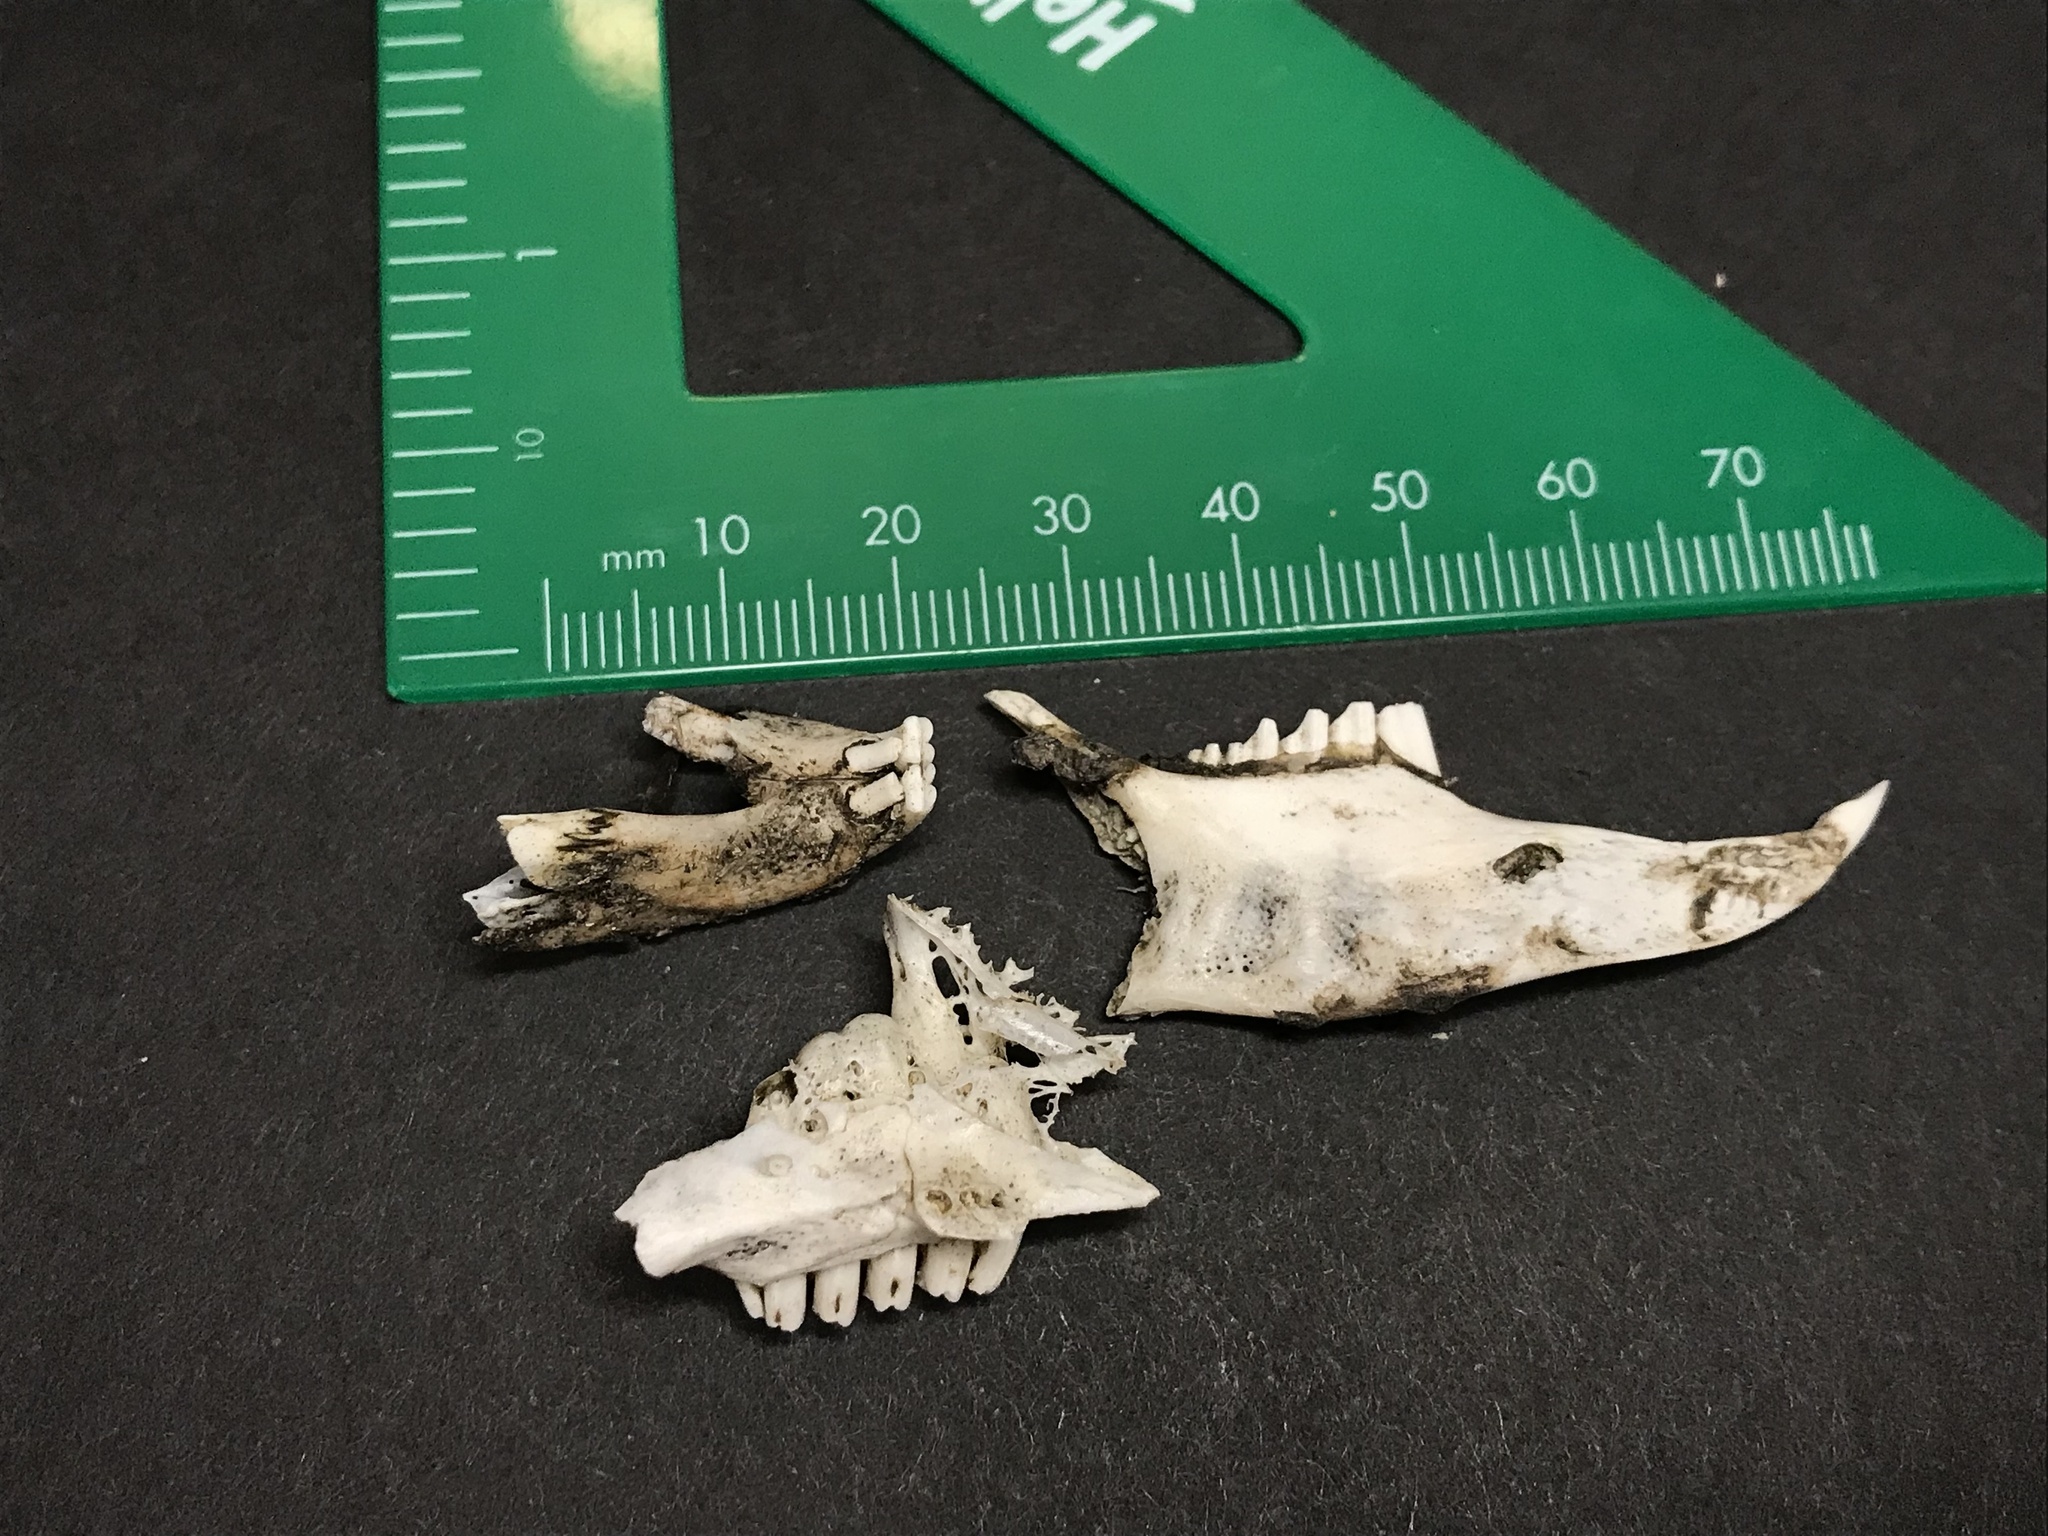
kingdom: Animalia
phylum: Chordata
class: Mammalia
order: Lagomorpha
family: Leporidae
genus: Lepus
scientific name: Lepus californicus
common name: Black-tailed jackrabbit
